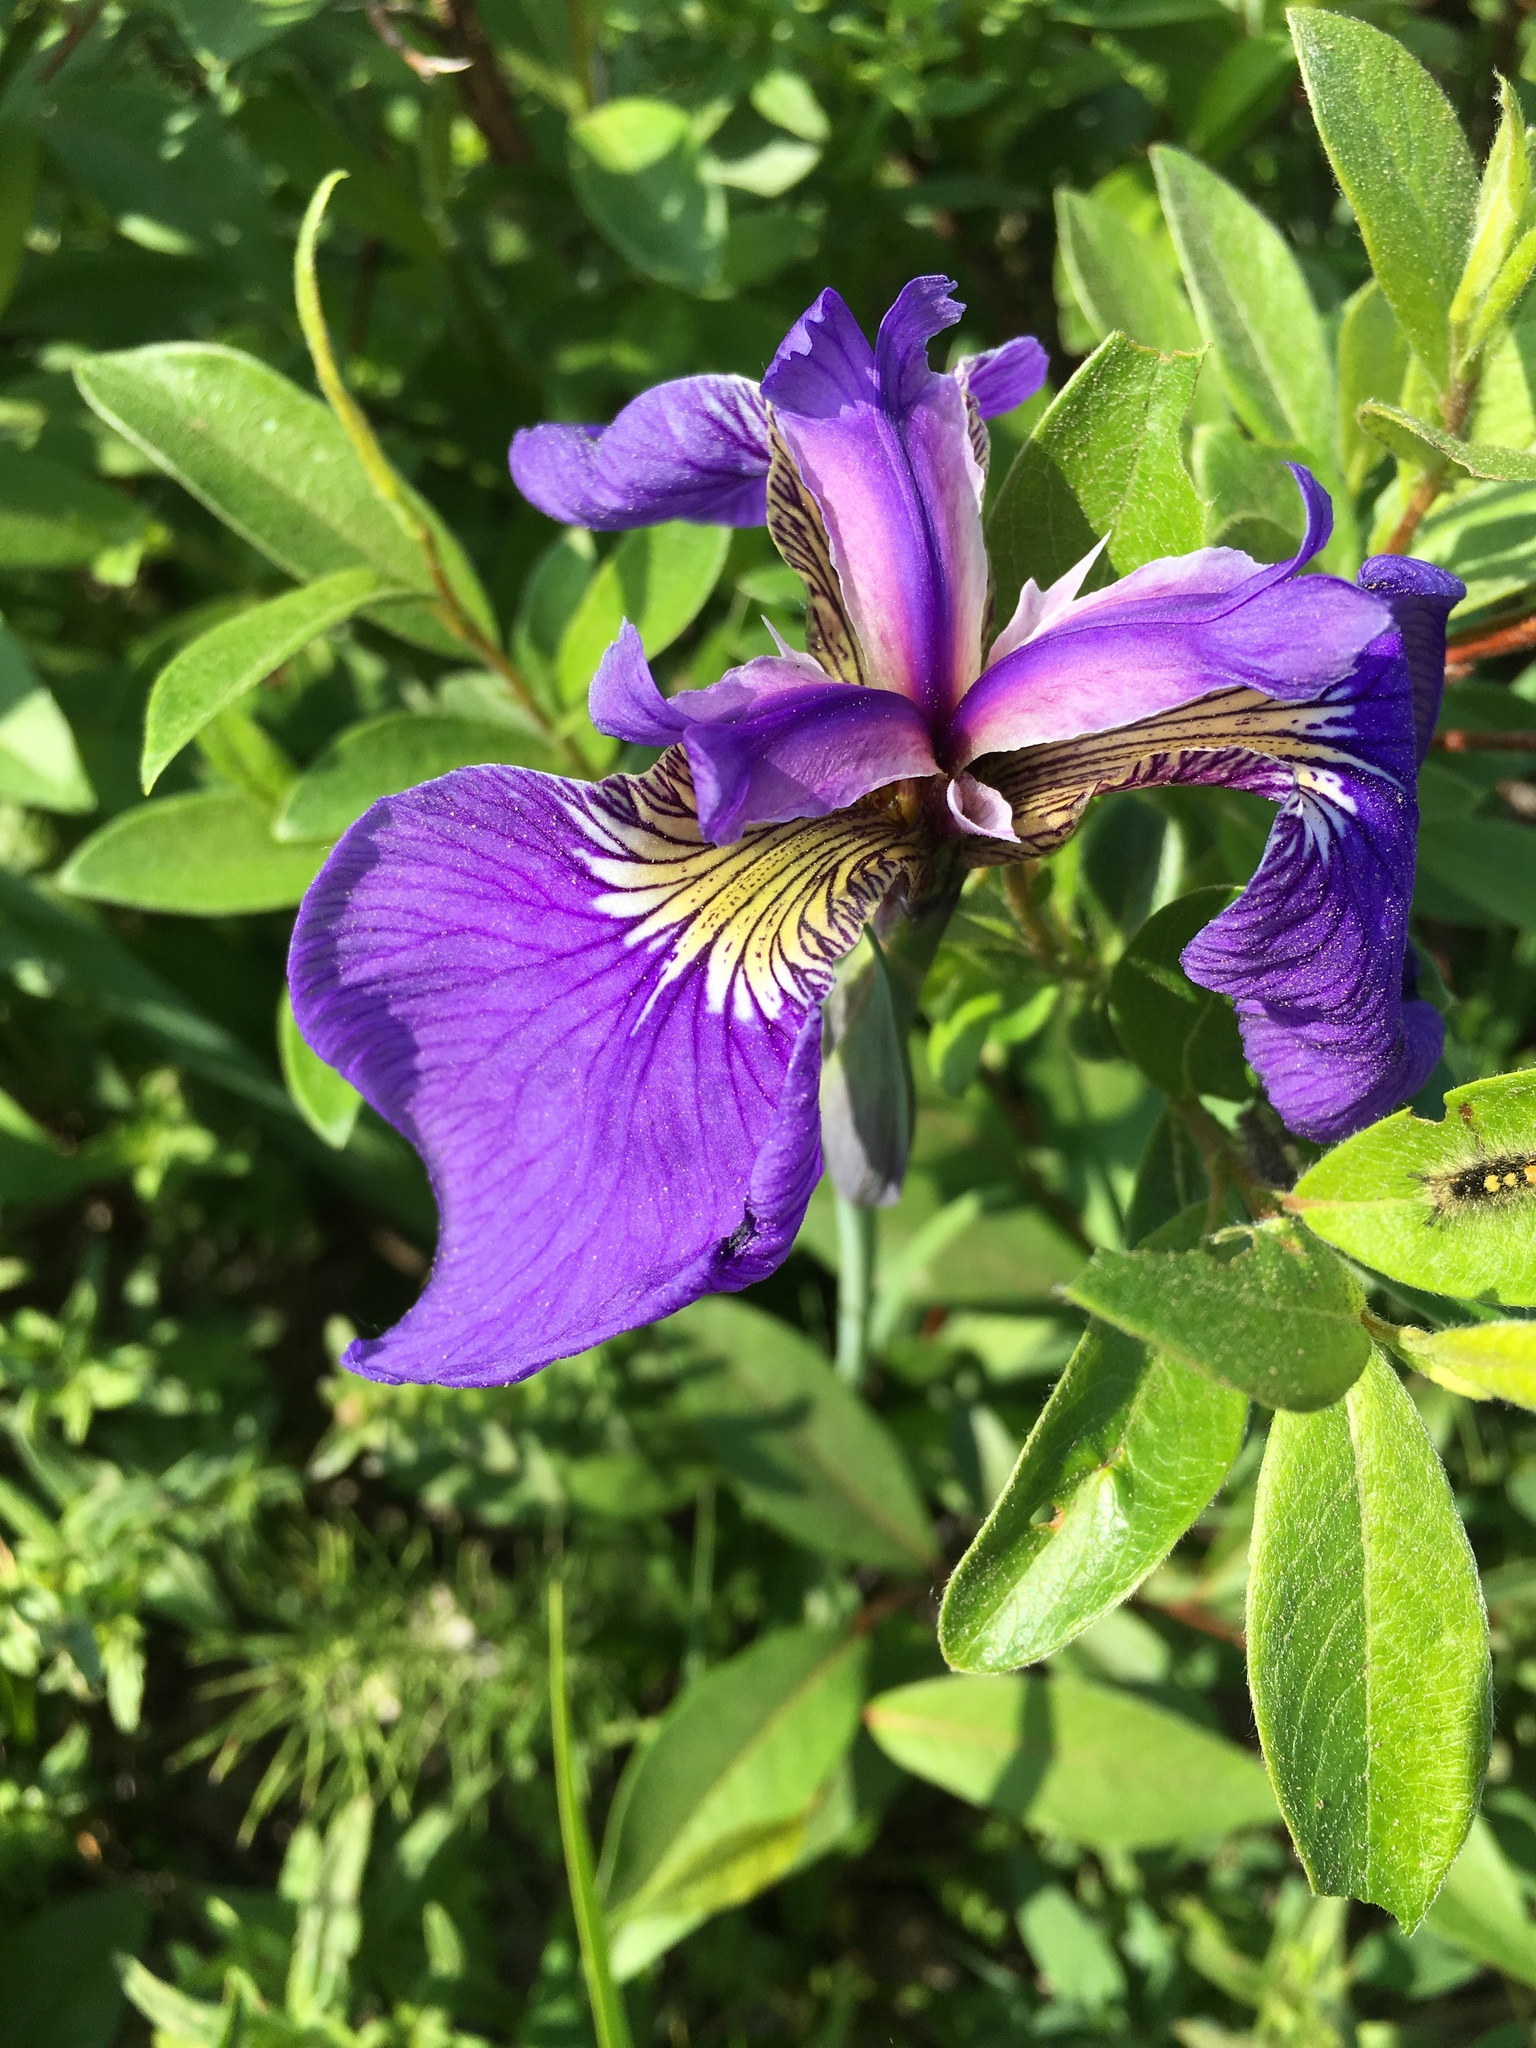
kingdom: Plantae
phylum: Tracheophyta
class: Liliopsida
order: Asparagales
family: Iridaceae
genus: Iris
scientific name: Iris setosa
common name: Arctic blue flag
